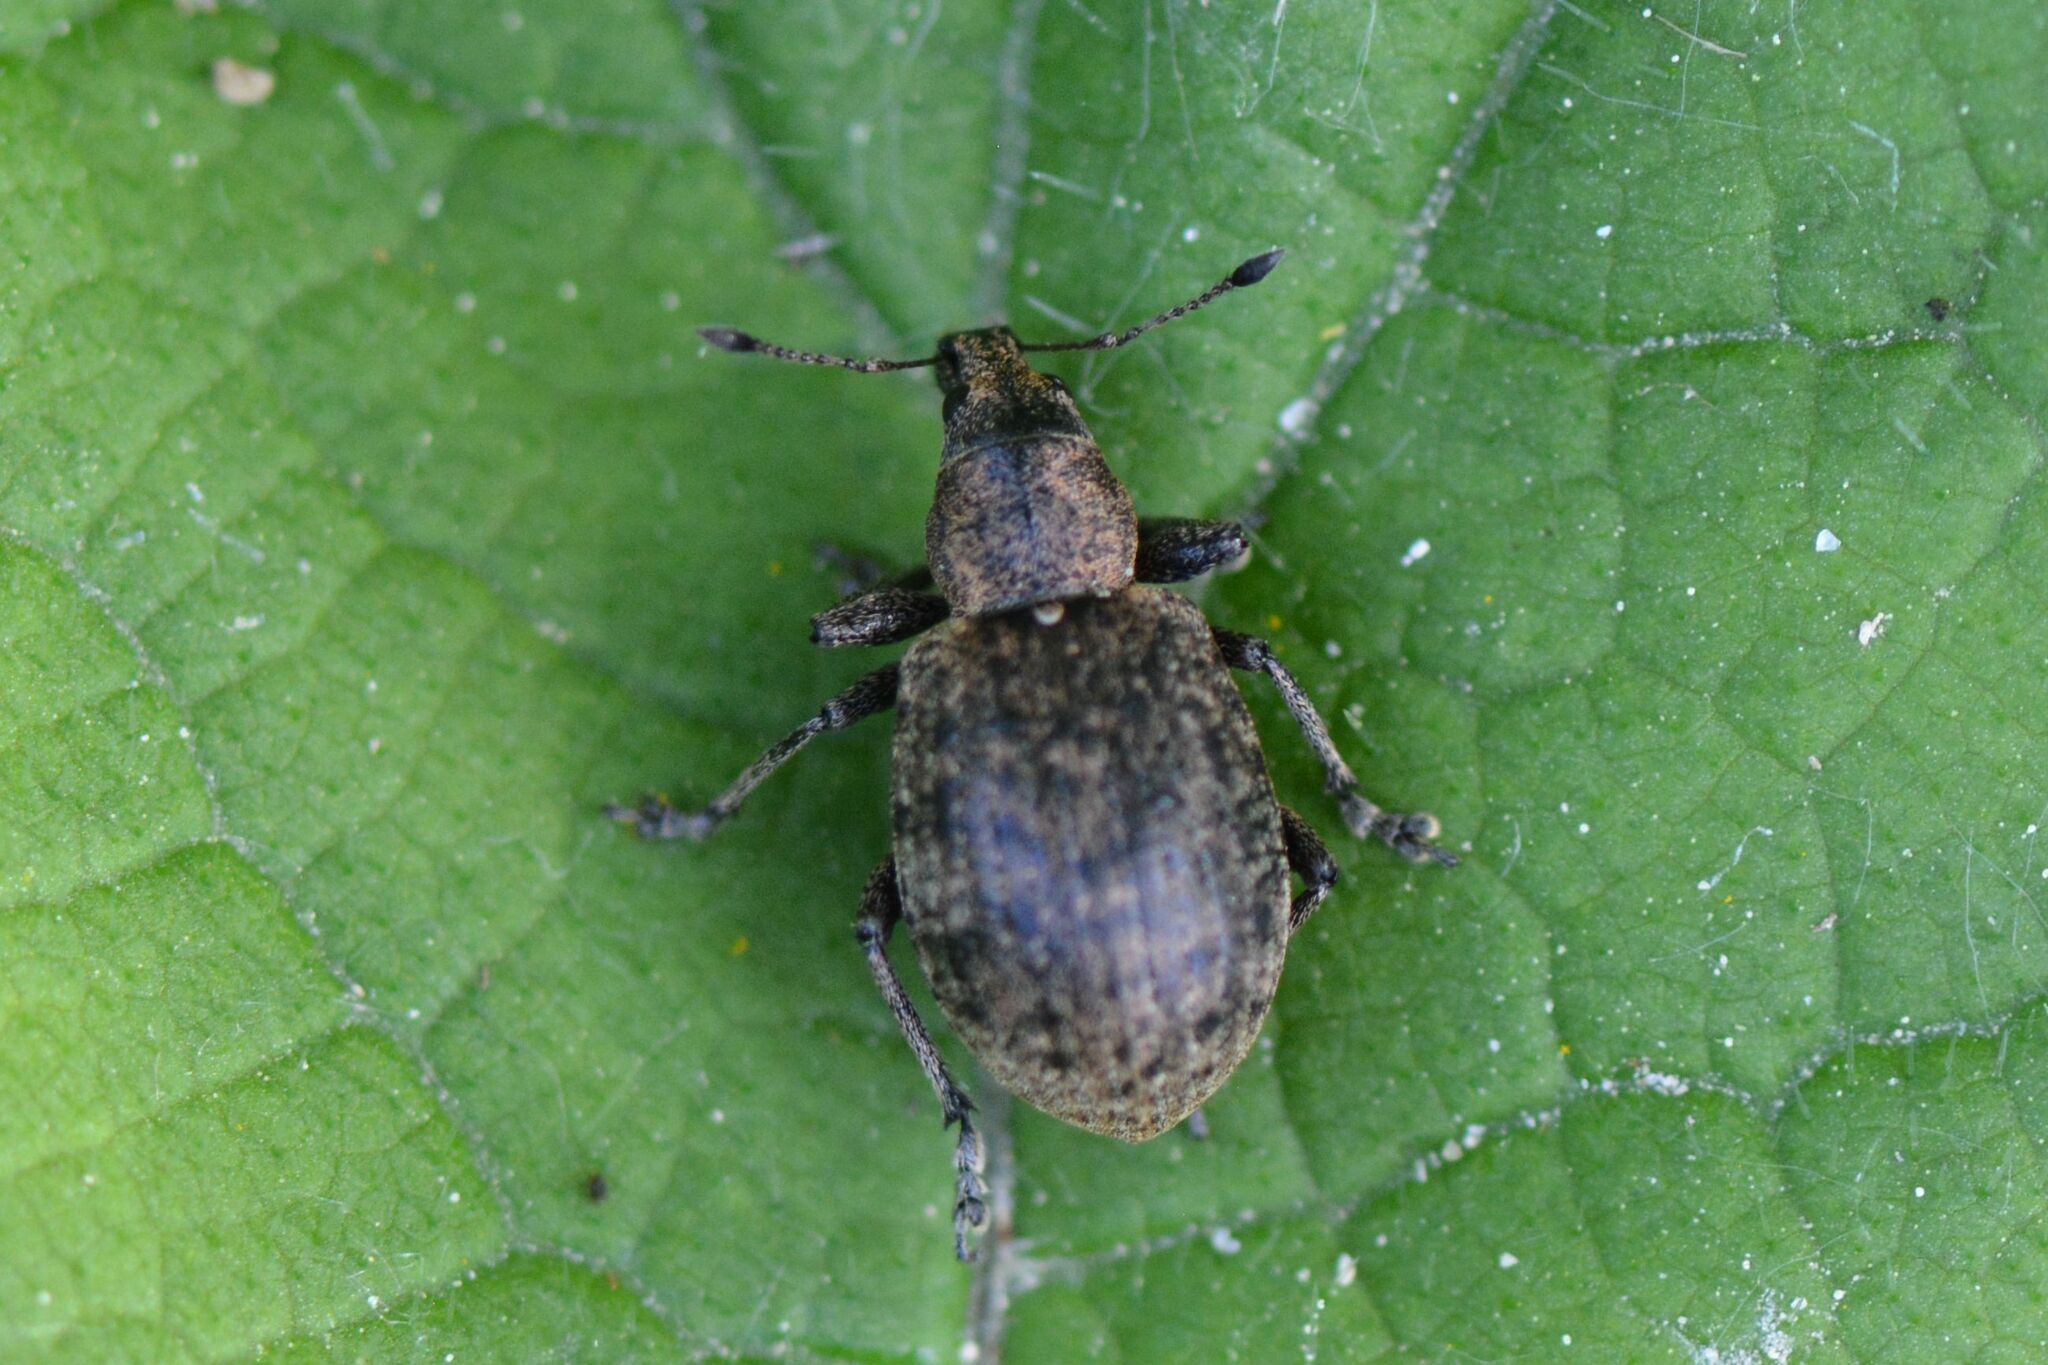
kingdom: Animalia
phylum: Arthropoda
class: Insecta
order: Coleoptera
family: Curculionidae
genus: Liophloeus
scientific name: Liophloeus tessulatus
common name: Weevil
